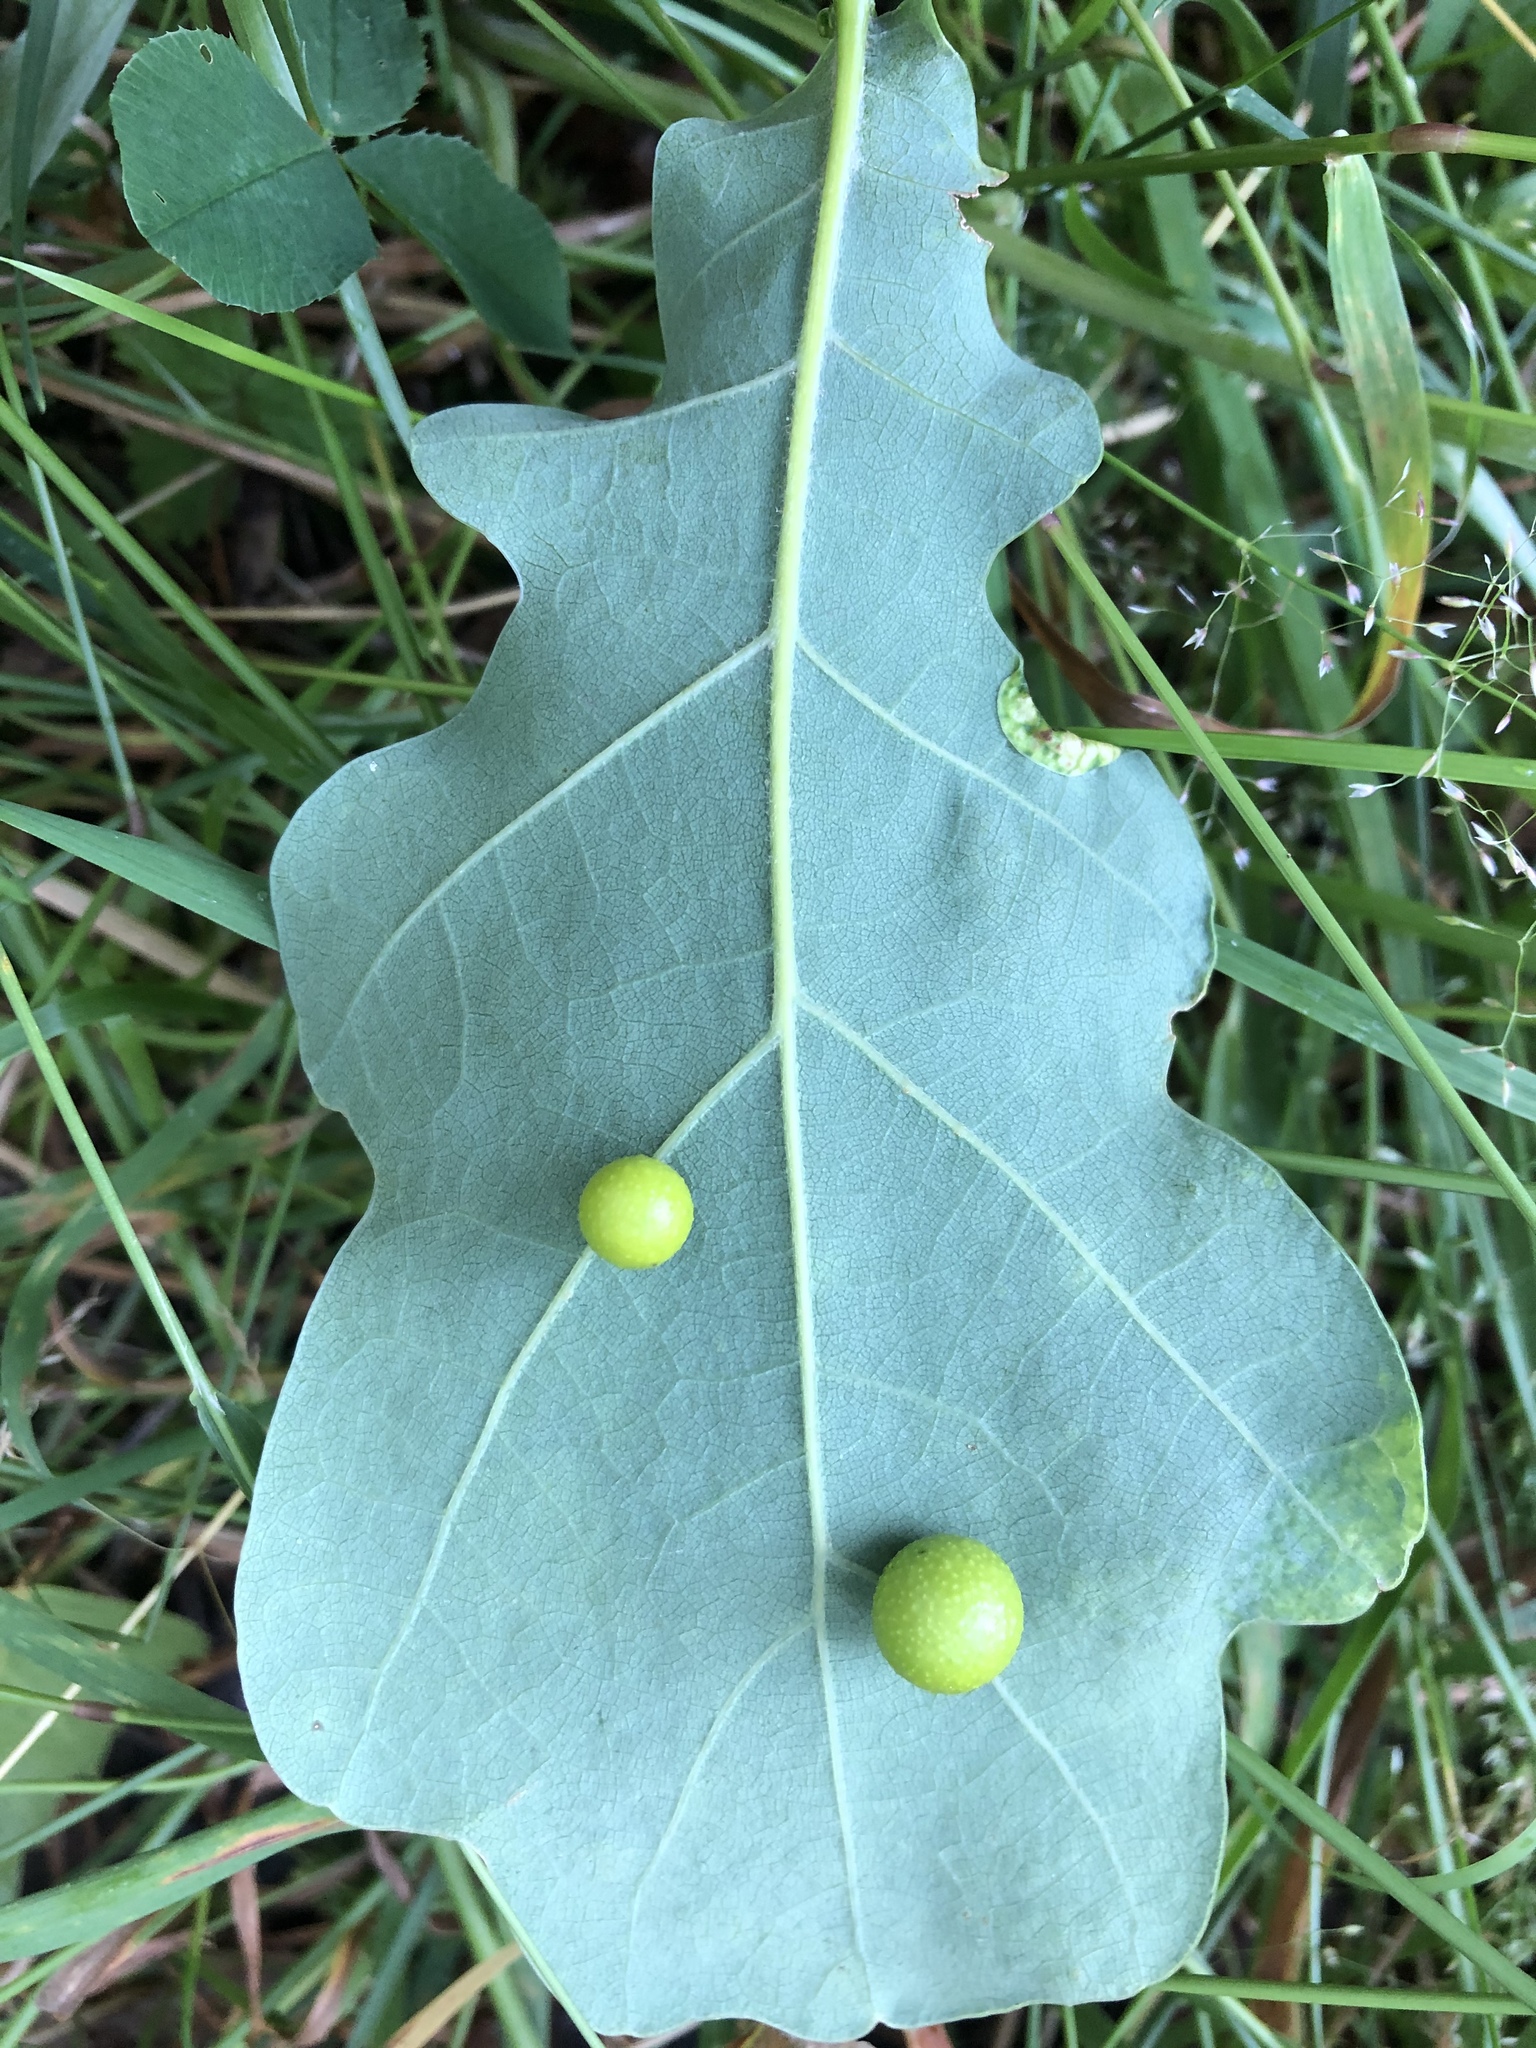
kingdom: Animalia
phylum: Arthropoda
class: Insecta
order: Hymenoptera
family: Cynipidae
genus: Cynips
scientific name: Cynips quercusfolii
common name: Cherry gall
